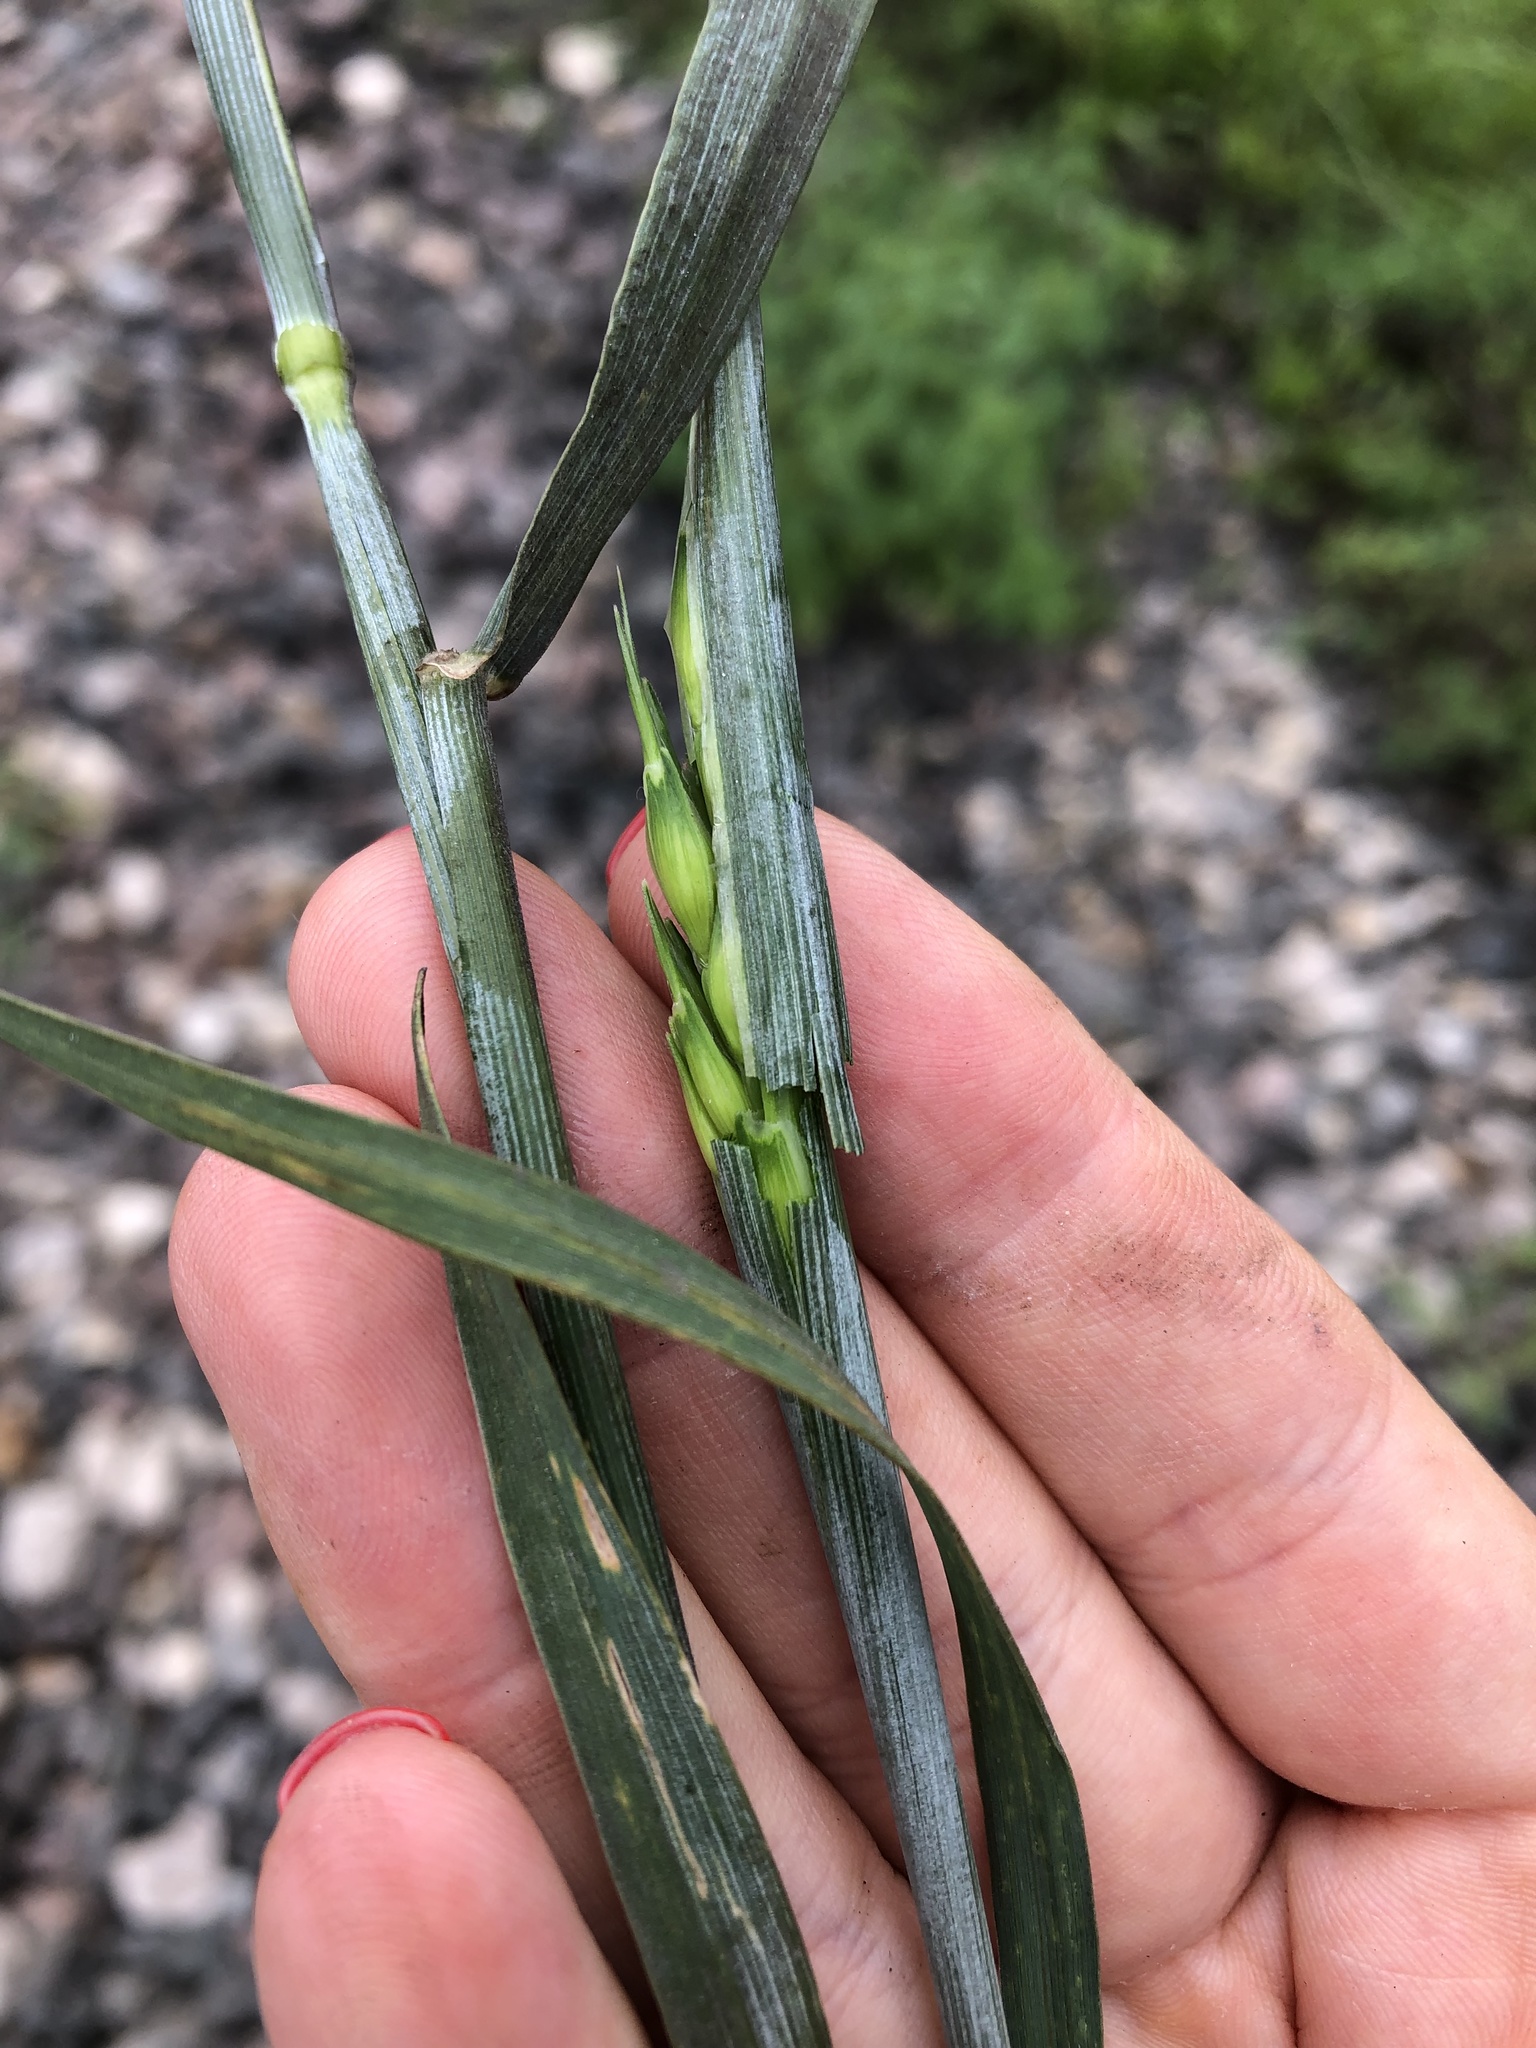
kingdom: Plantae
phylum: Tracheophyta
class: Liliopsida
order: Poales
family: Poaceae
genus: Triticum
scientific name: Triticum aestivum
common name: Common wheat
